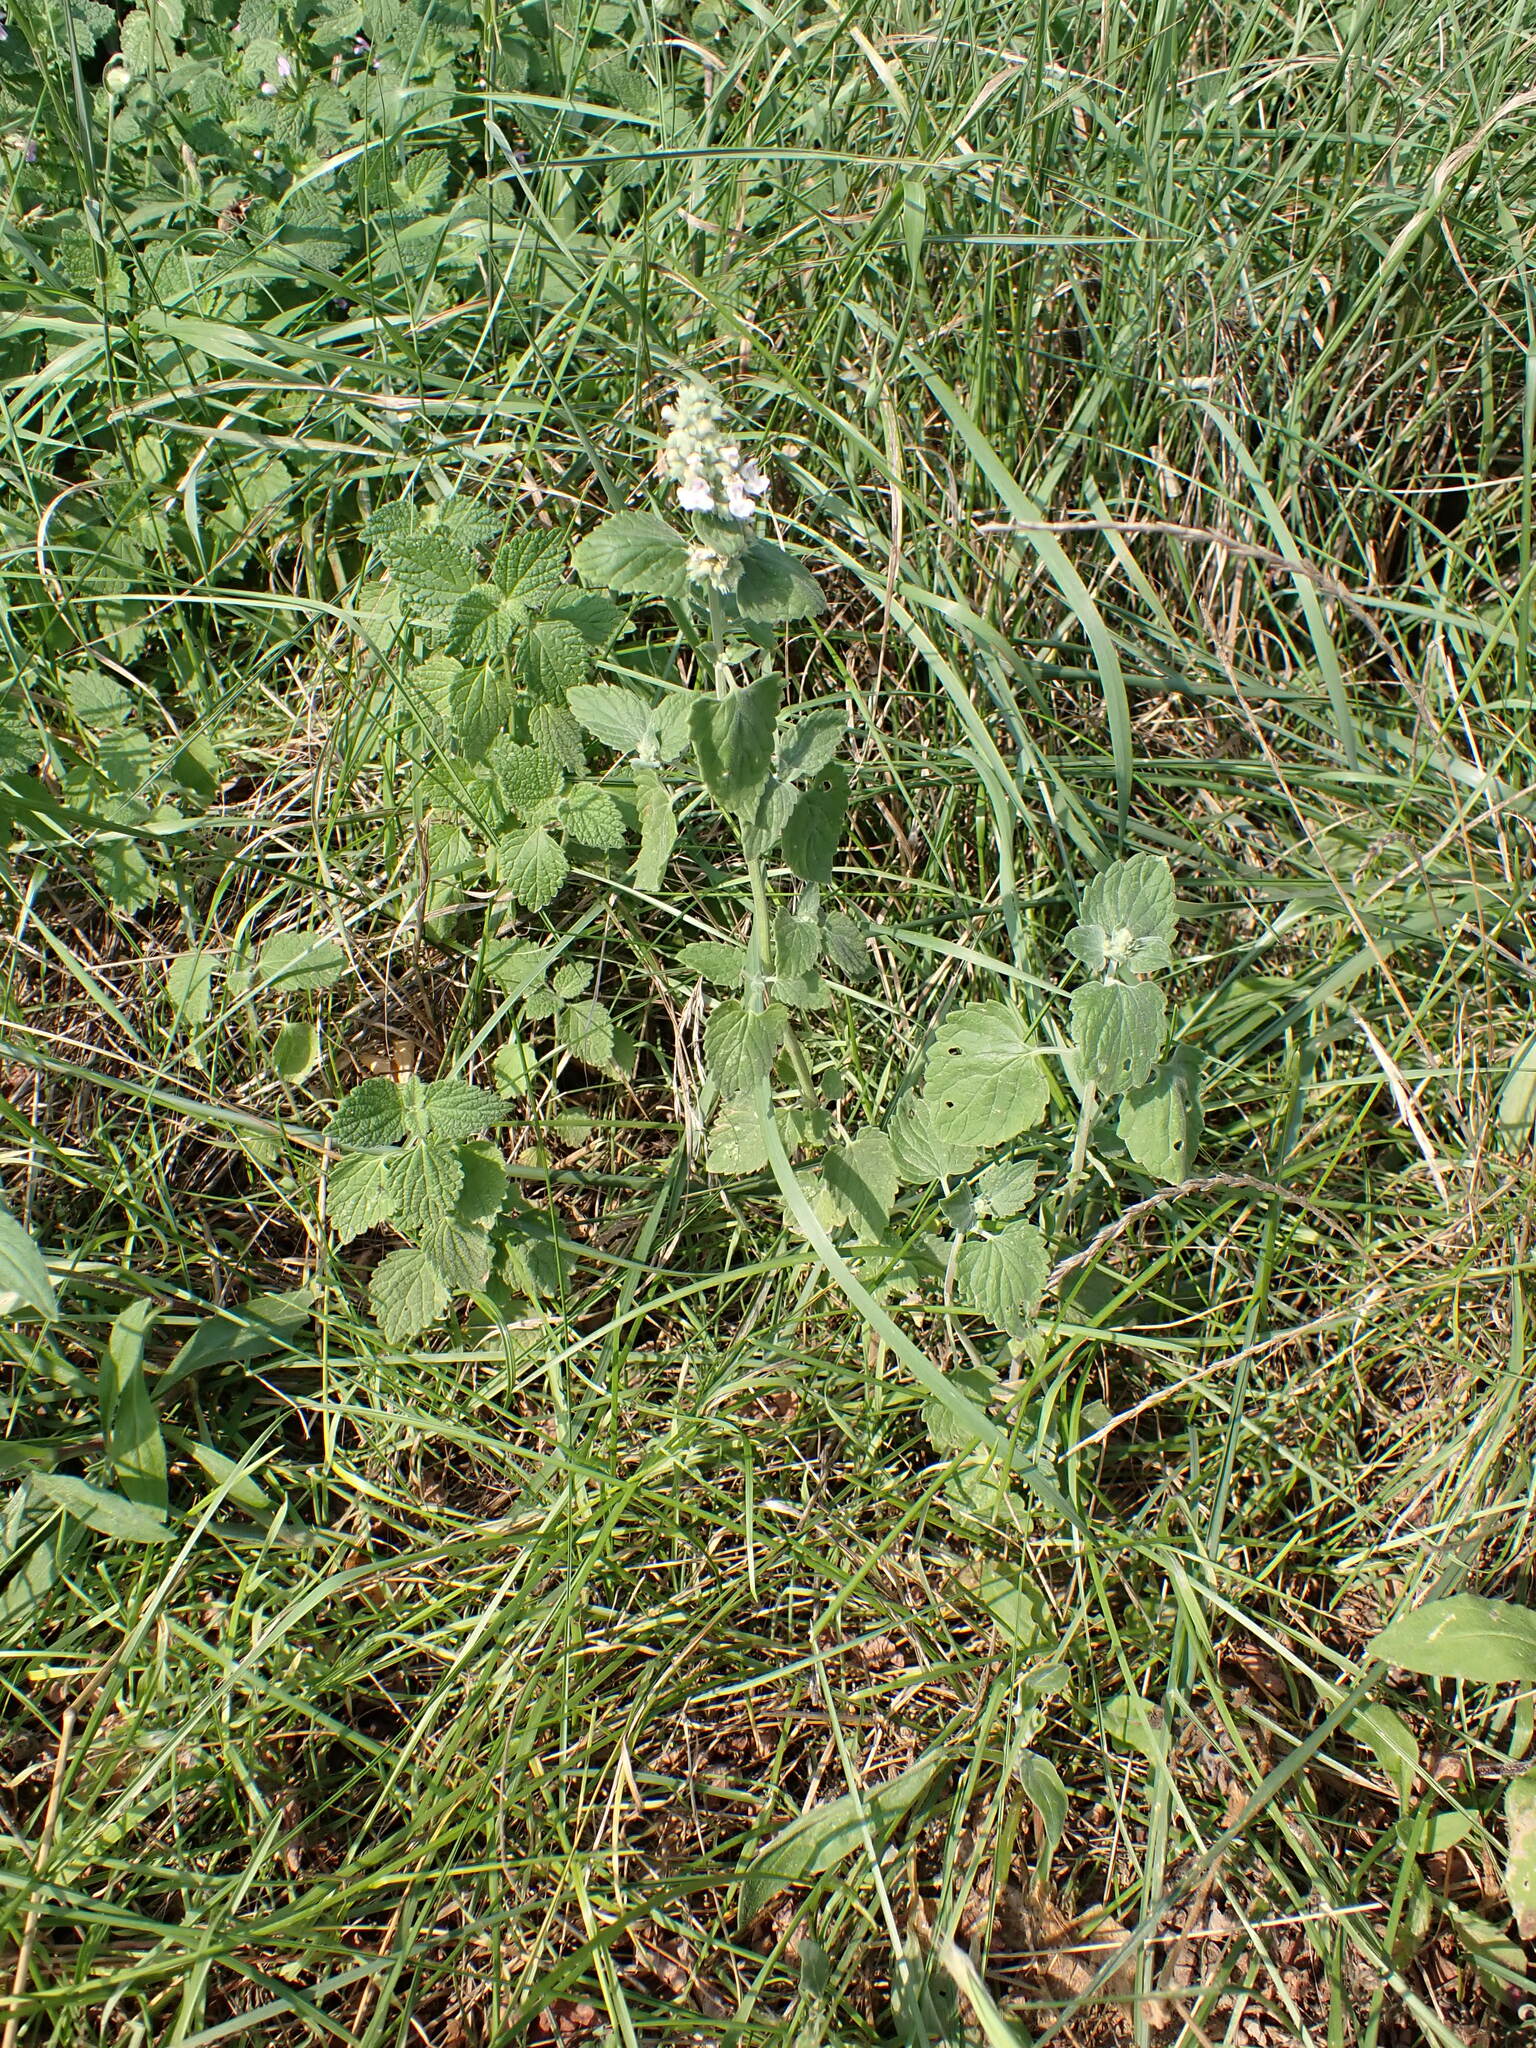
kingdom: Plantae
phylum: Tracheophyta
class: Magnoliopsida
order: Lamiales
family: Lamiaceae
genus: Nepeta
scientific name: Nepeta cataria
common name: Catnip
